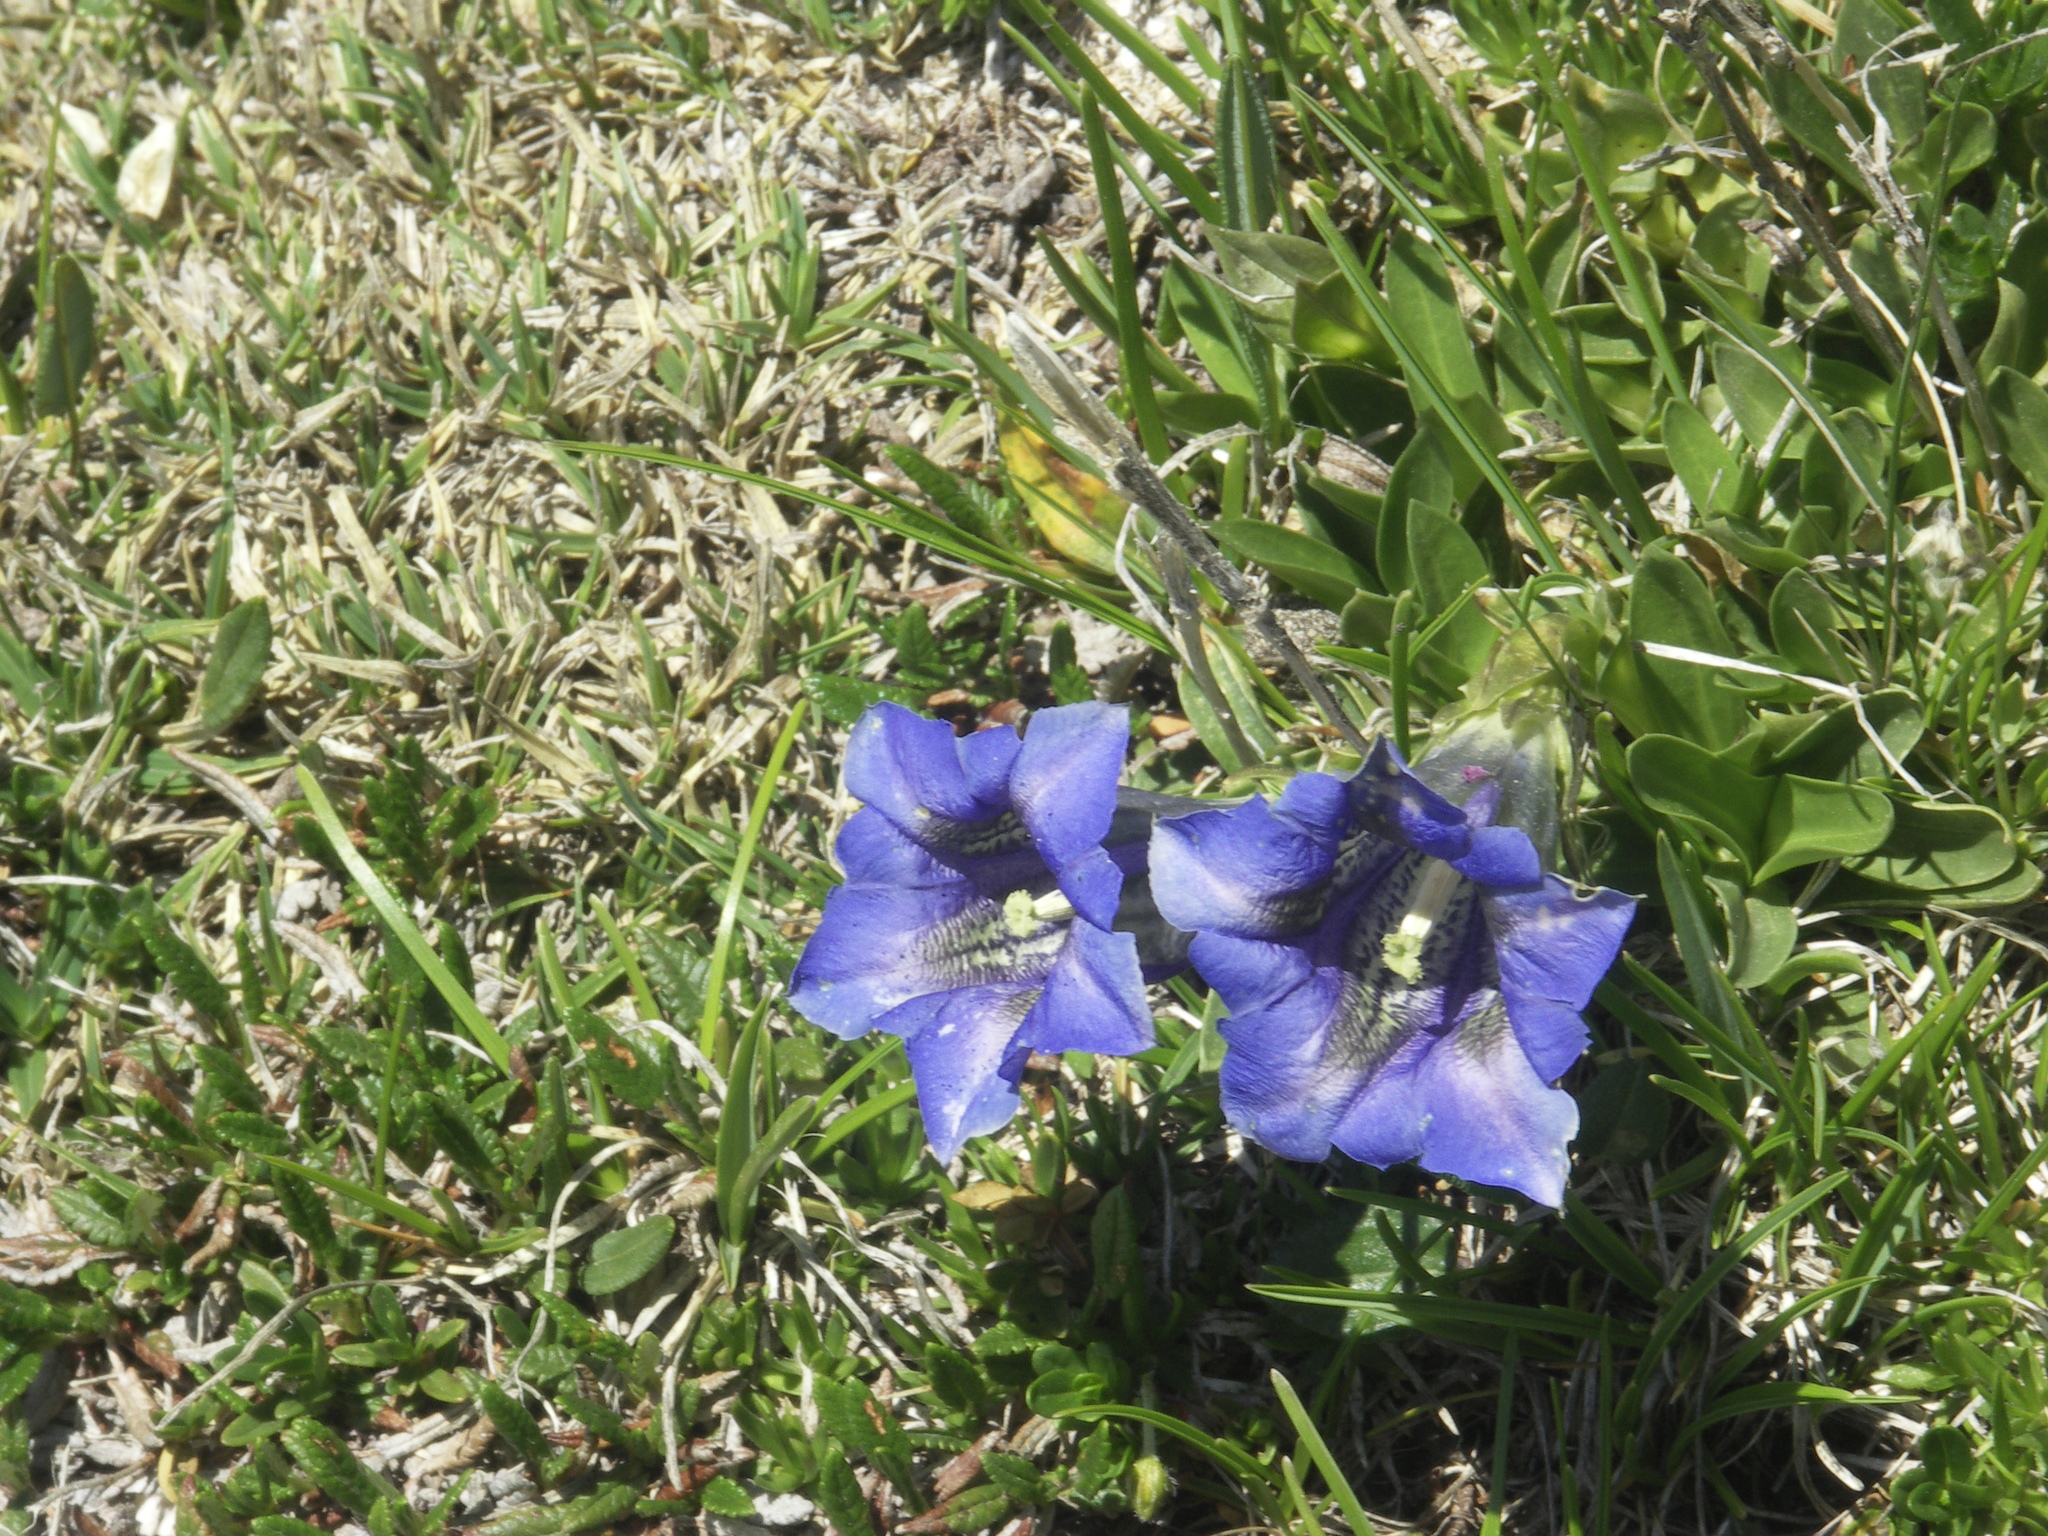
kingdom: Plantae
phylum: Tracheophyta
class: Magnoliopsida
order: Gentianales
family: Gentianaceae
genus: Gentiana
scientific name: Gentiana clusii
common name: Trumpet gentian
